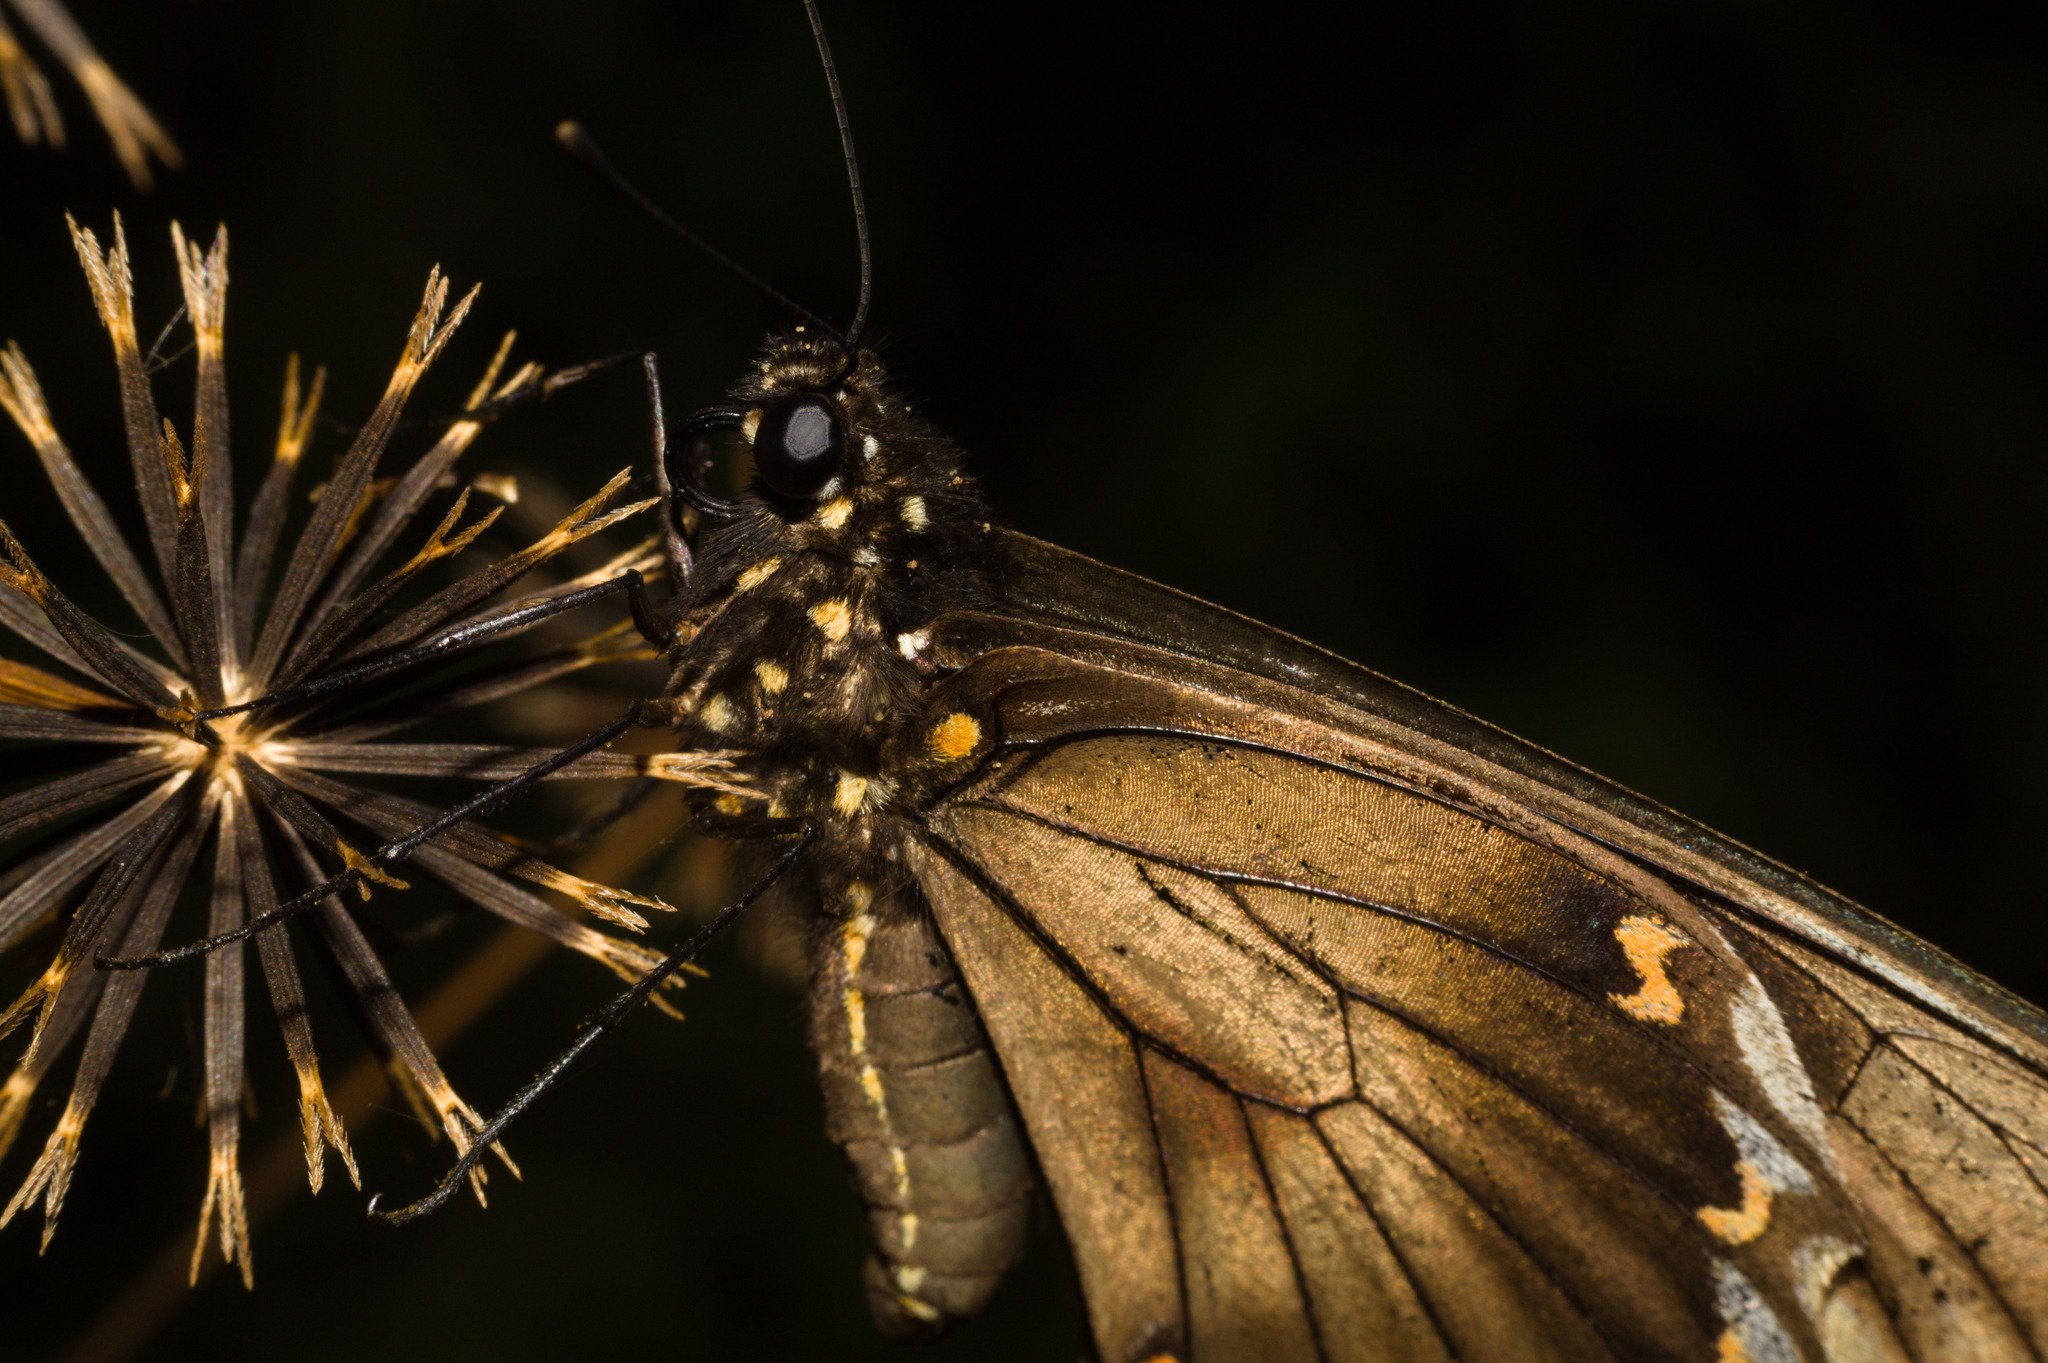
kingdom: Animalia
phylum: Arthropoda
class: Insecta
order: Lepidoptera
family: Papilionidae
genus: Battus
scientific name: Battus polydamas
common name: Polydamas swallowtail
